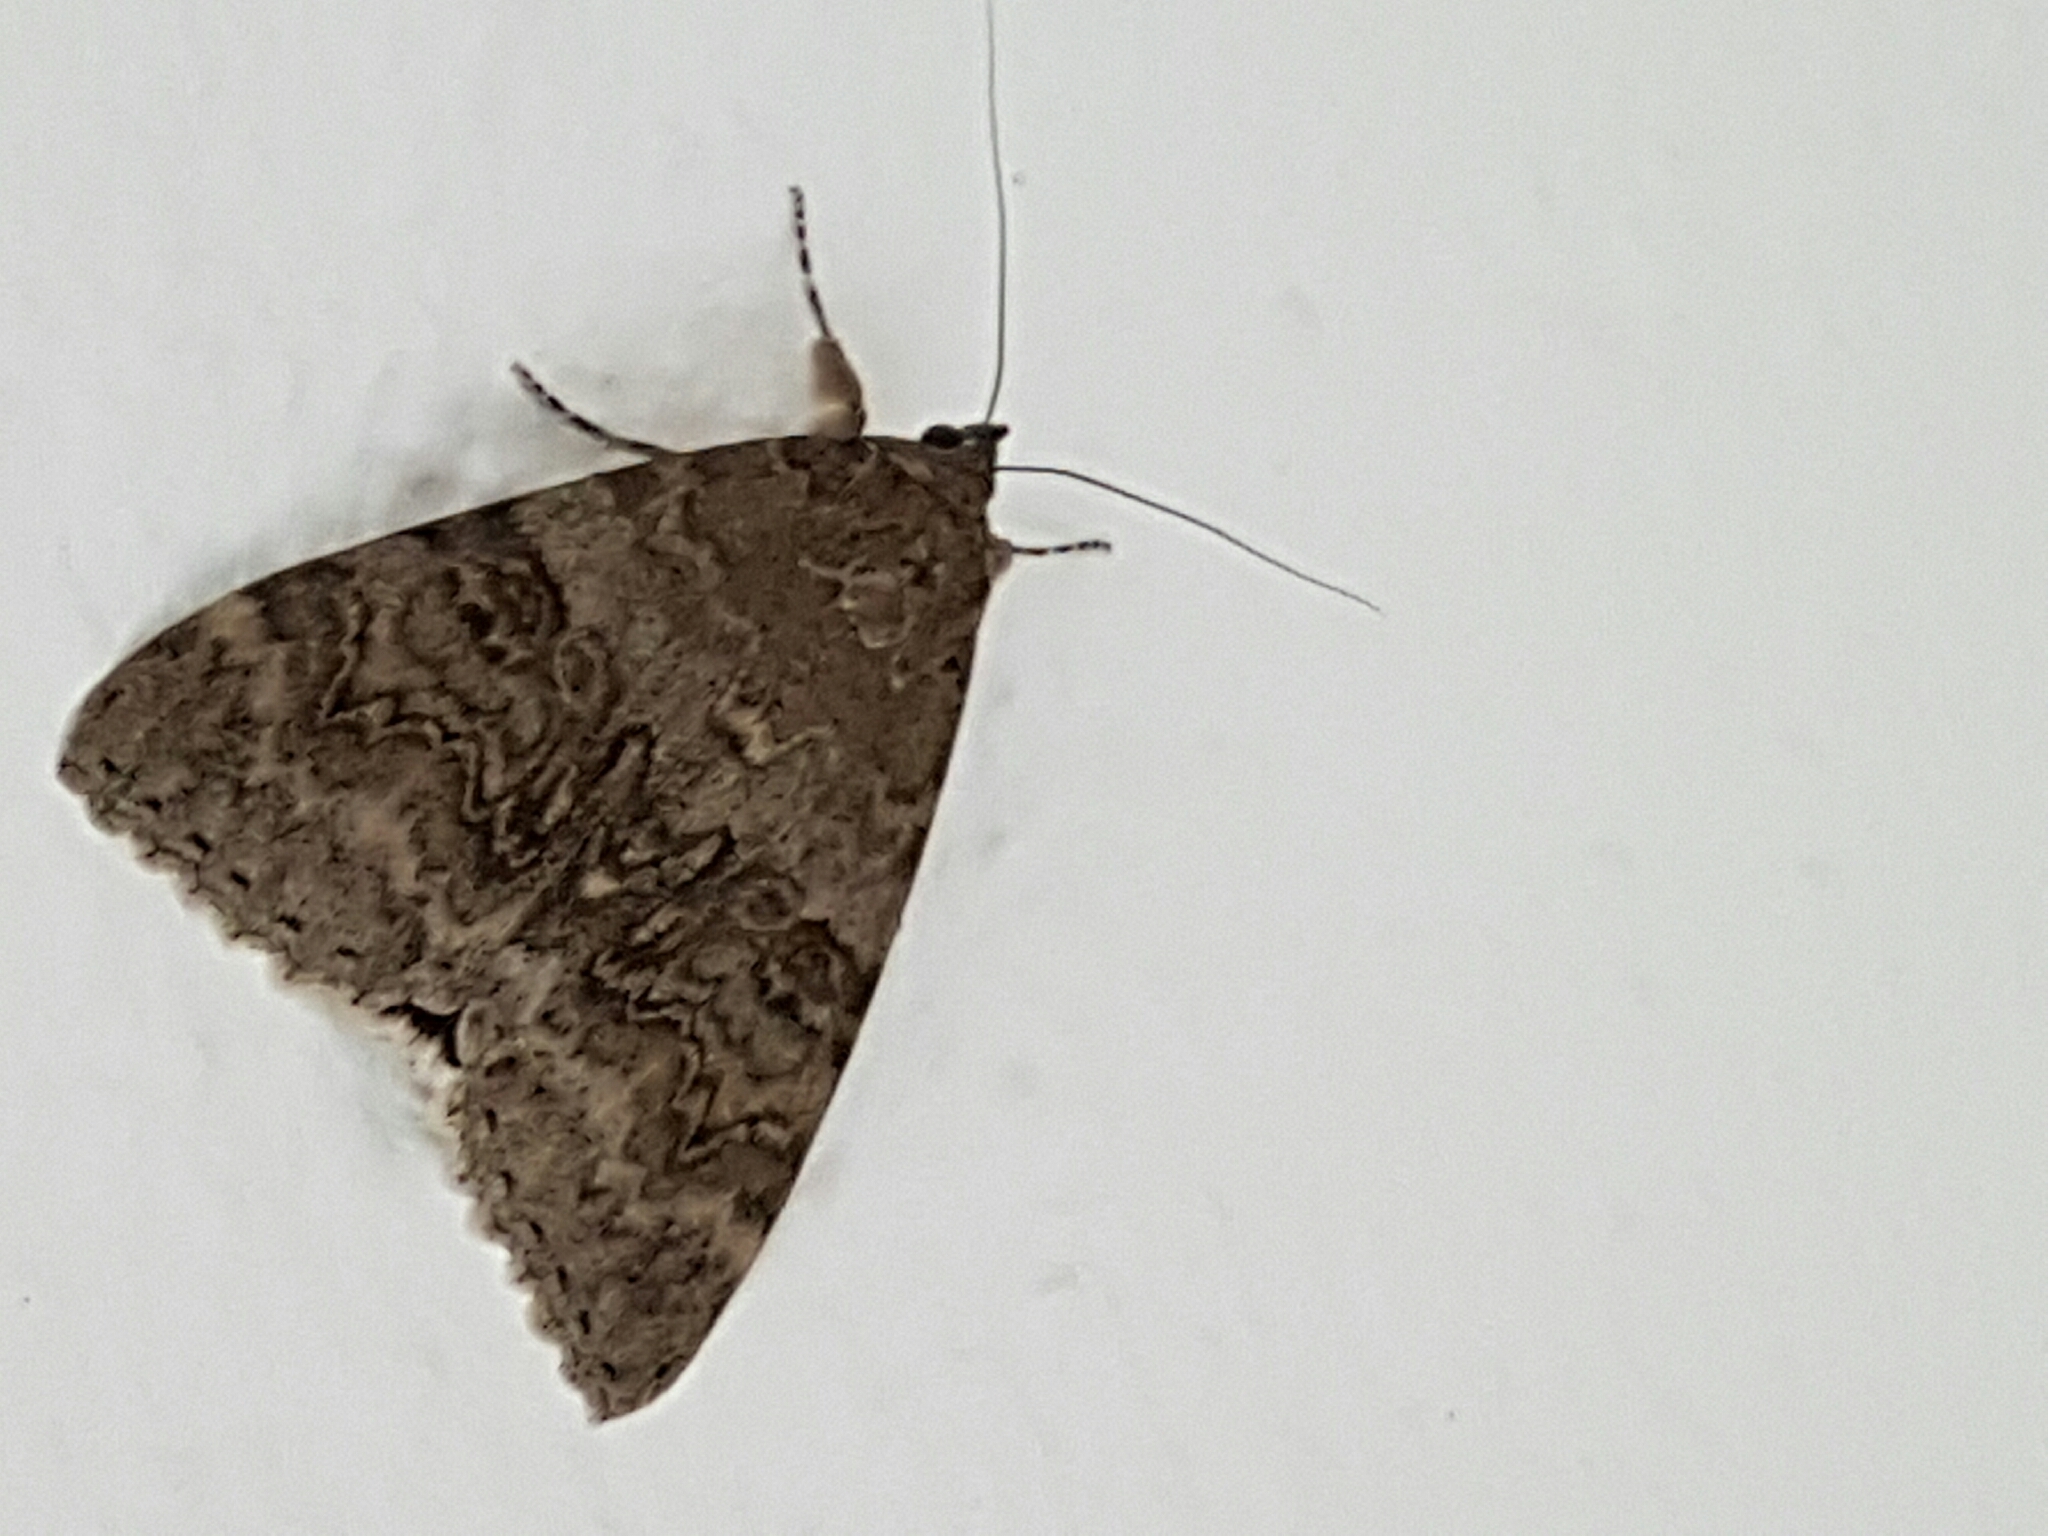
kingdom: Animalia
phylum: Arthropoda
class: Insecta
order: Lepidoptera
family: Erebidae
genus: Catocala
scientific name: Catocala nupta
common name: Red underwing
